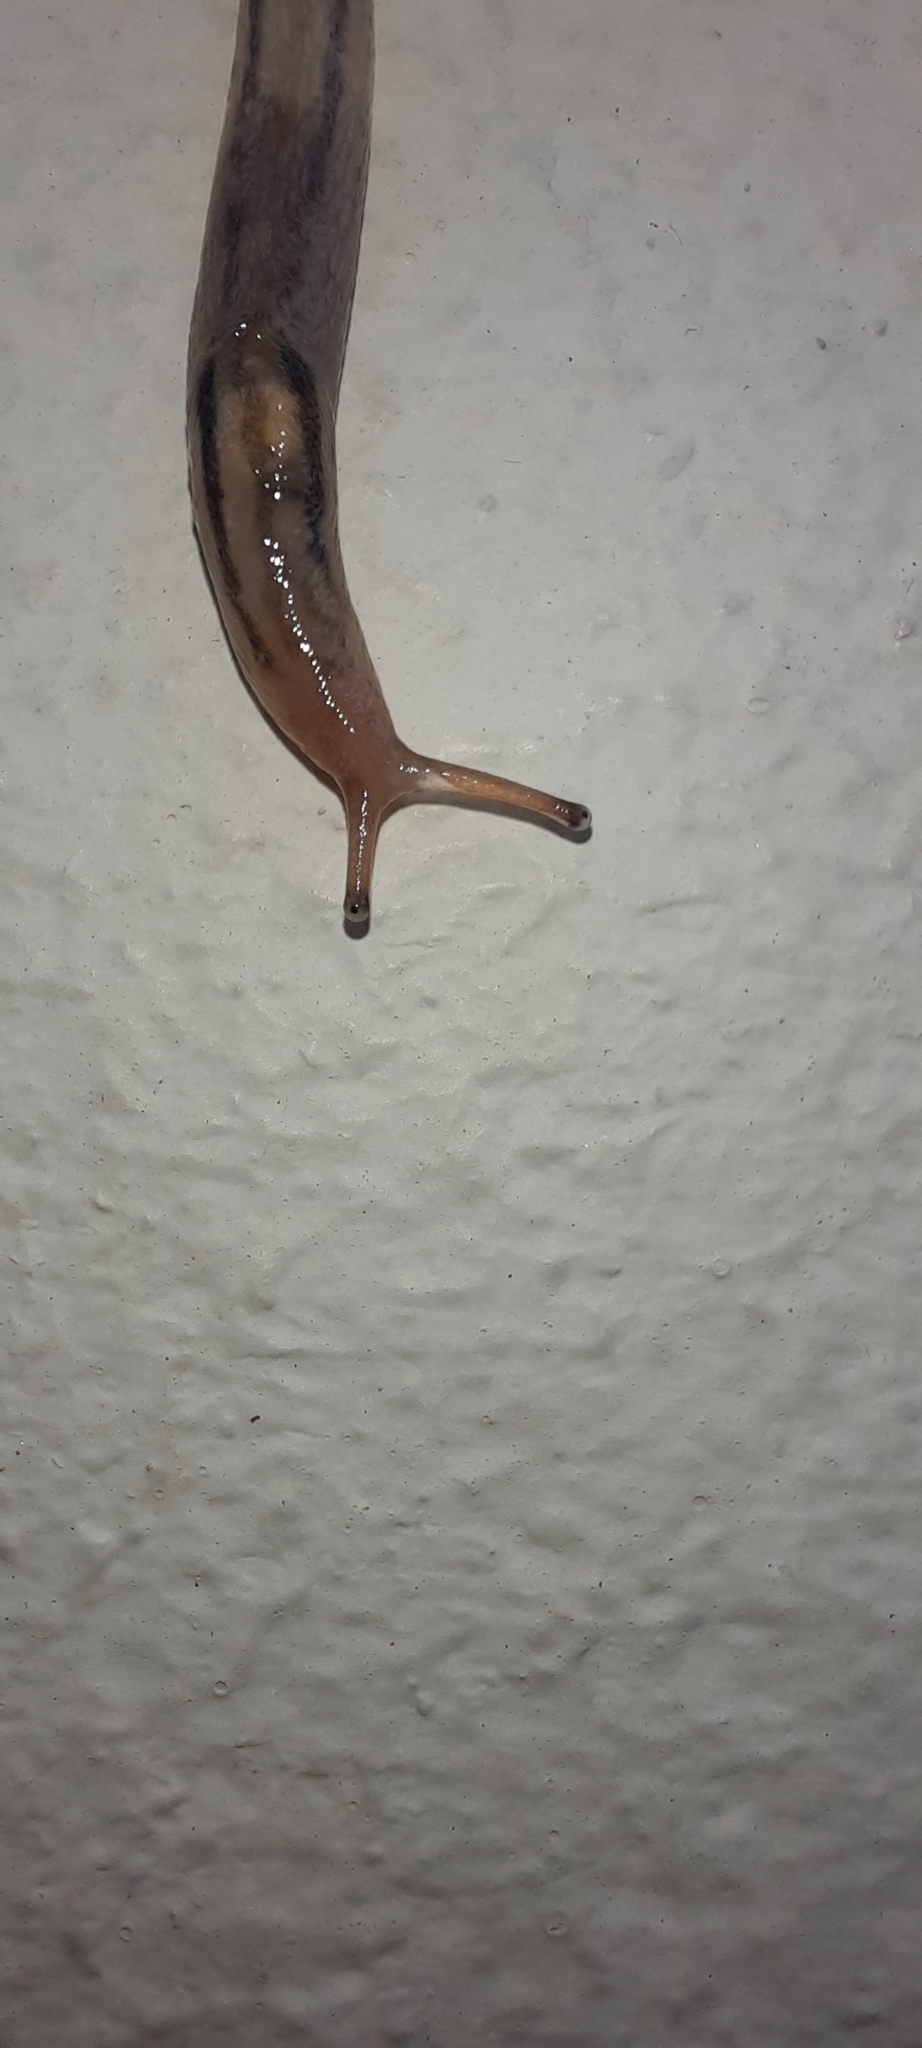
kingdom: Animalia
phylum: Mollusca
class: Gastropoda
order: Stylommatophora
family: Limacidae
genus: Ambigolimax
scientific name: Ambigolimax
